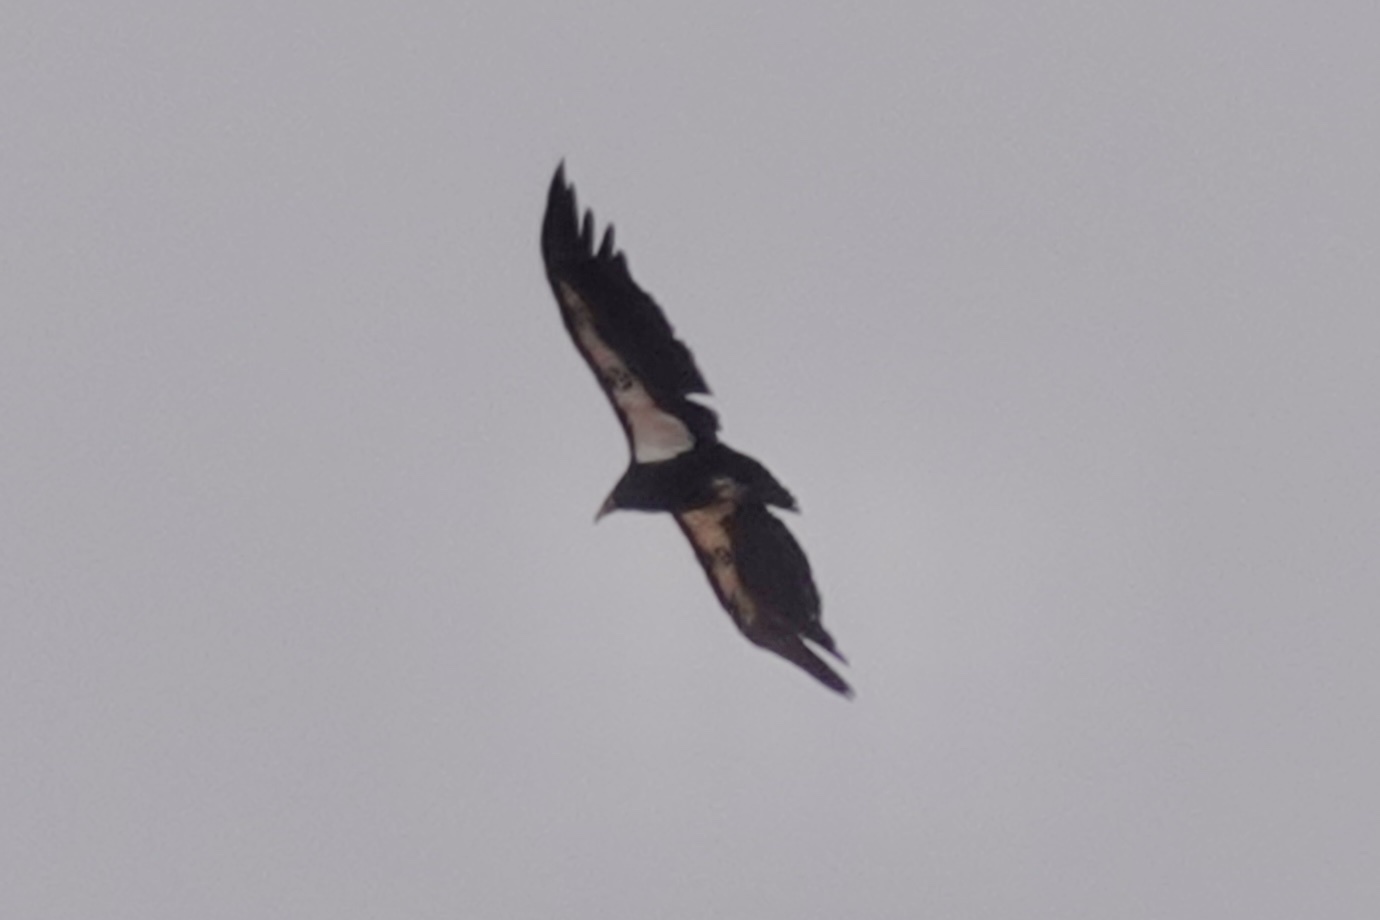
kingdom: Animalia
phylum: Chordata
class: Aves
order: Accipitriformes
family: Cathartidae
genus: Gymnogyps
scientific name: Gymnogyps californianus
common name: California condor
